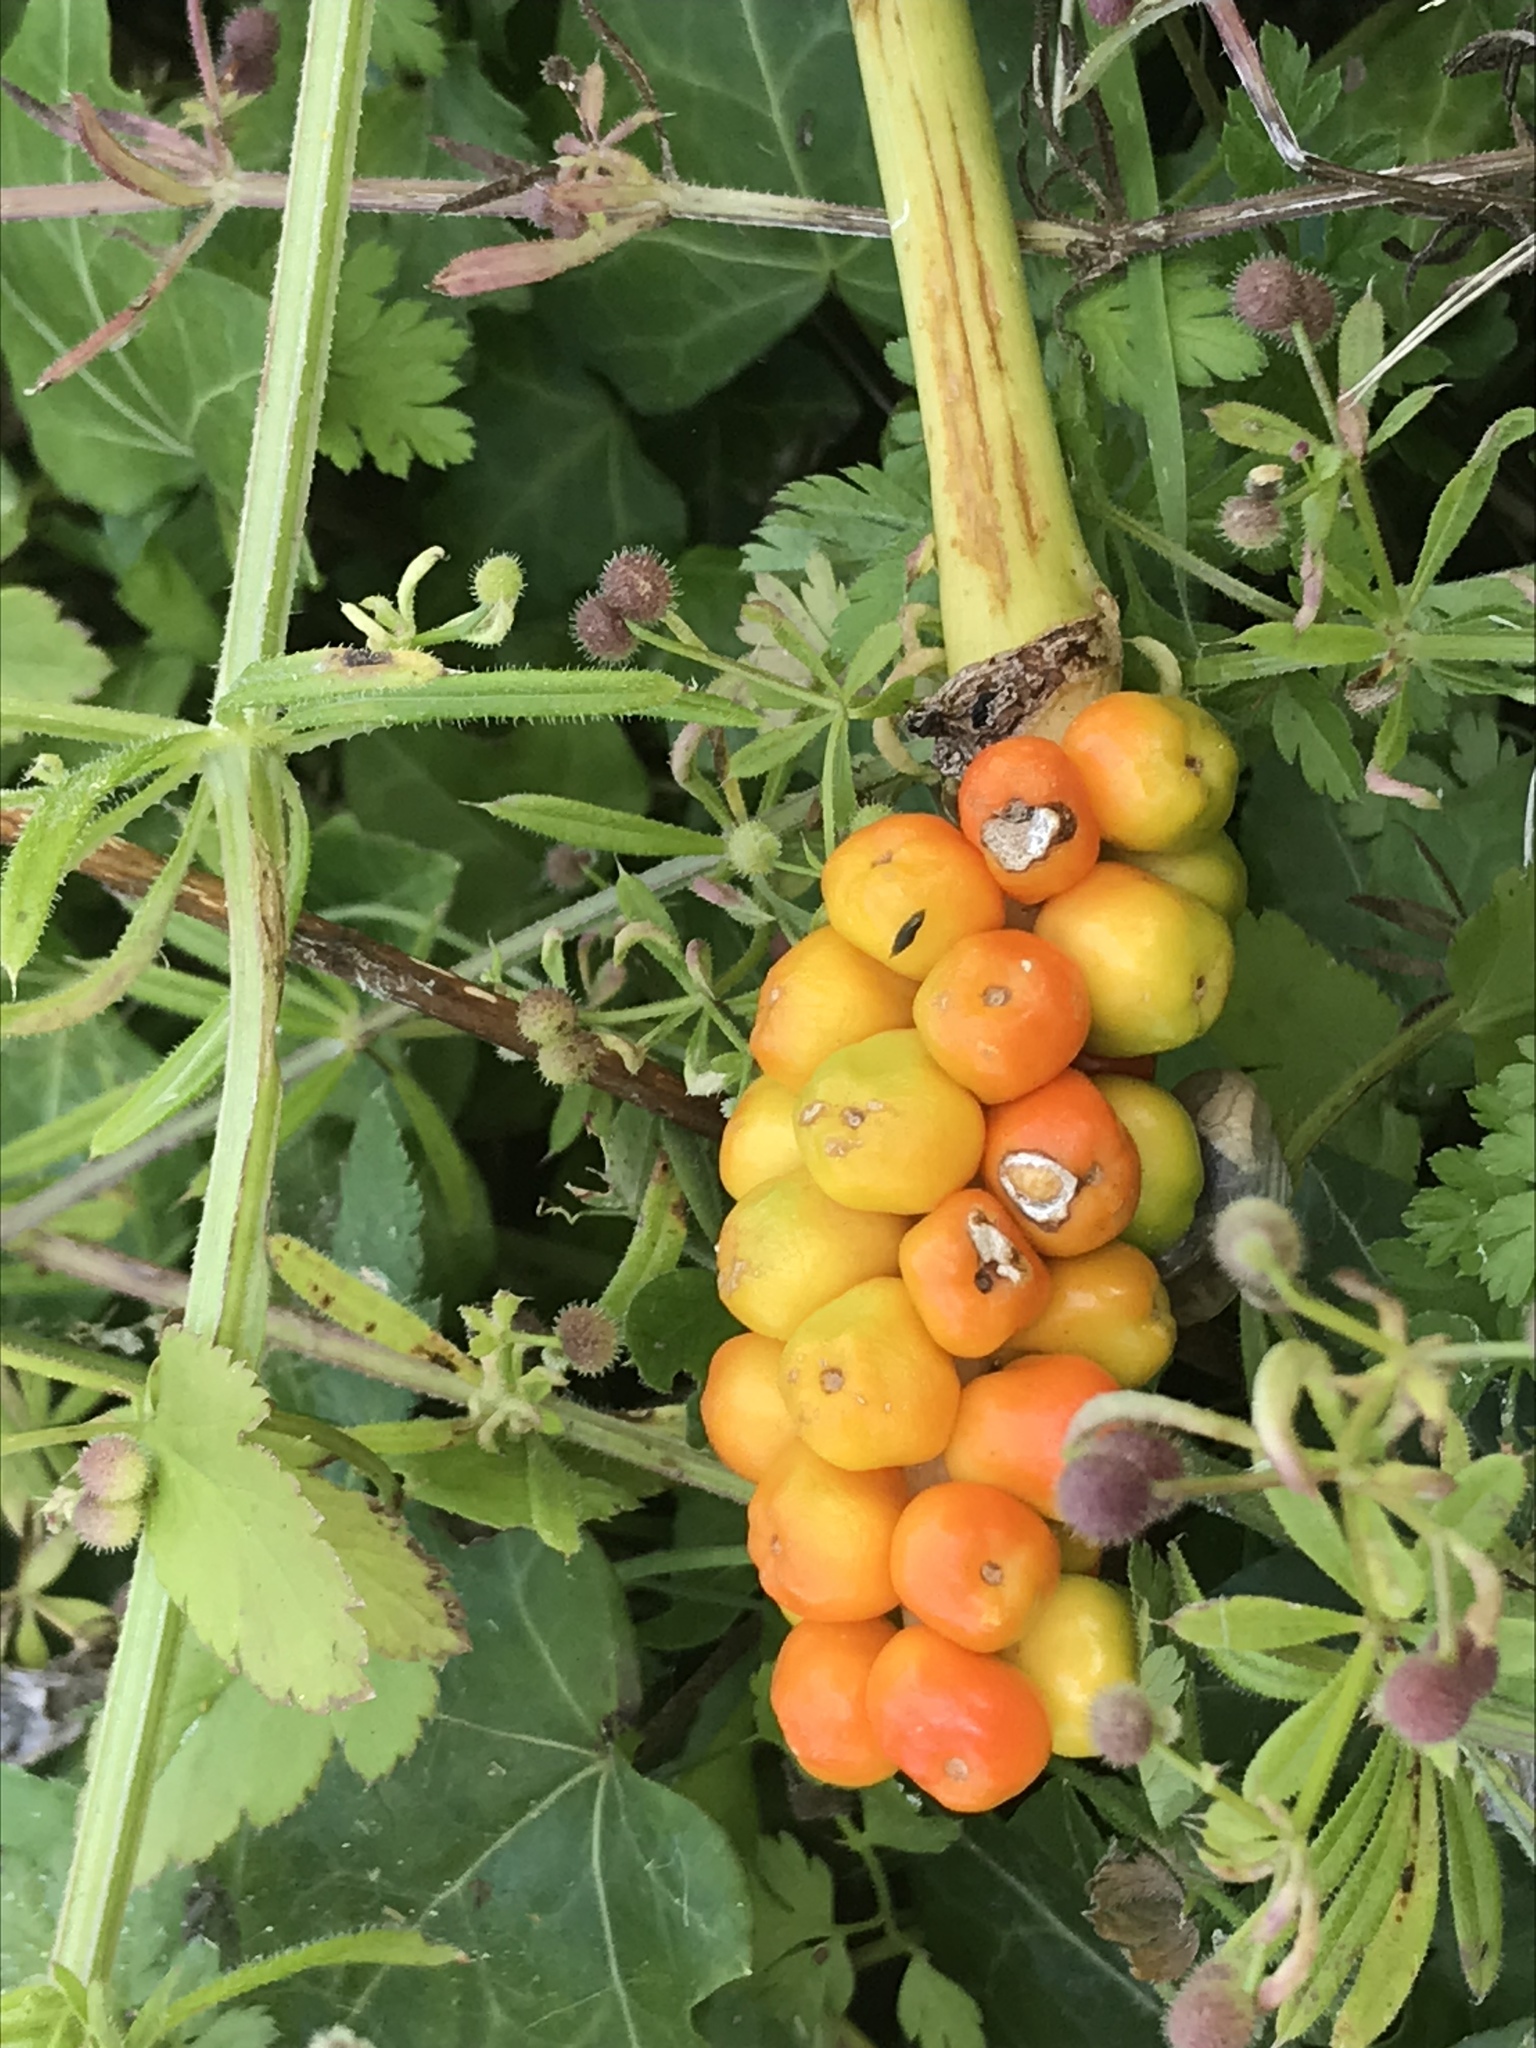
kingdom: Plantae
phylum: Tracheophyta
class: Liliopsida
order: Alismatales
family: Araceae
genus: Arum
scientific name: Arum maculatum
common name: Lords-and-ladies
